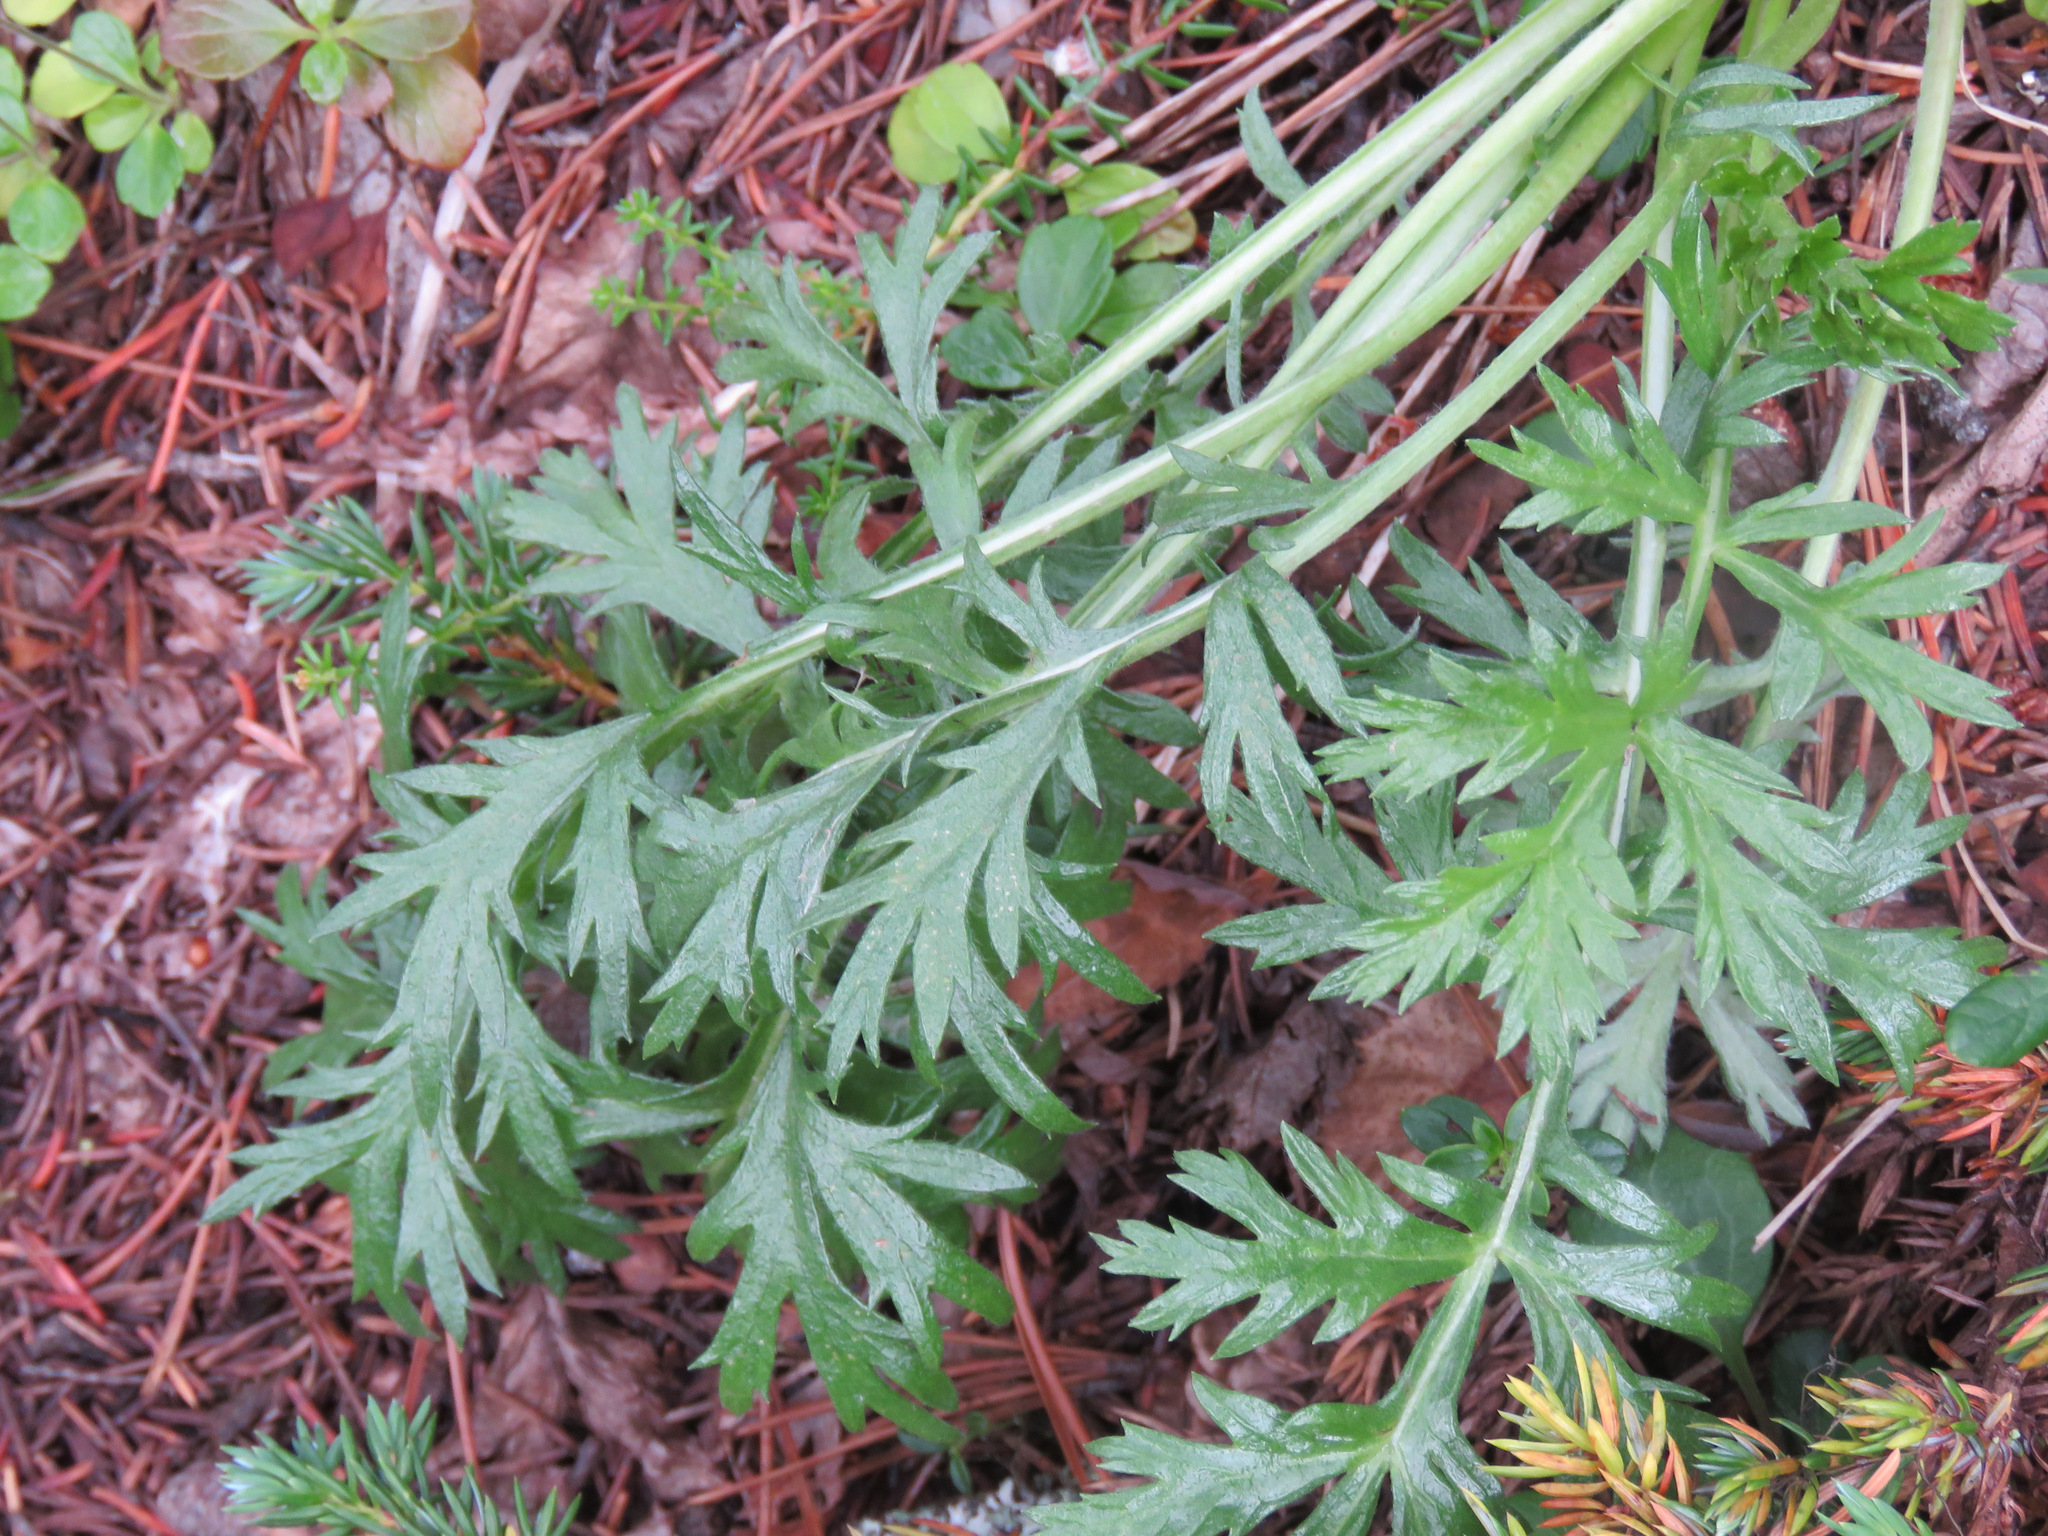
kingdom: Plantae
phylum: Tracheophyta
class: Magnoliopsida
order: Asterales
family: Asteraceae
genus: Artemisia
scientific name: Artemisia norvegica
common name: Norwegian mugwort
